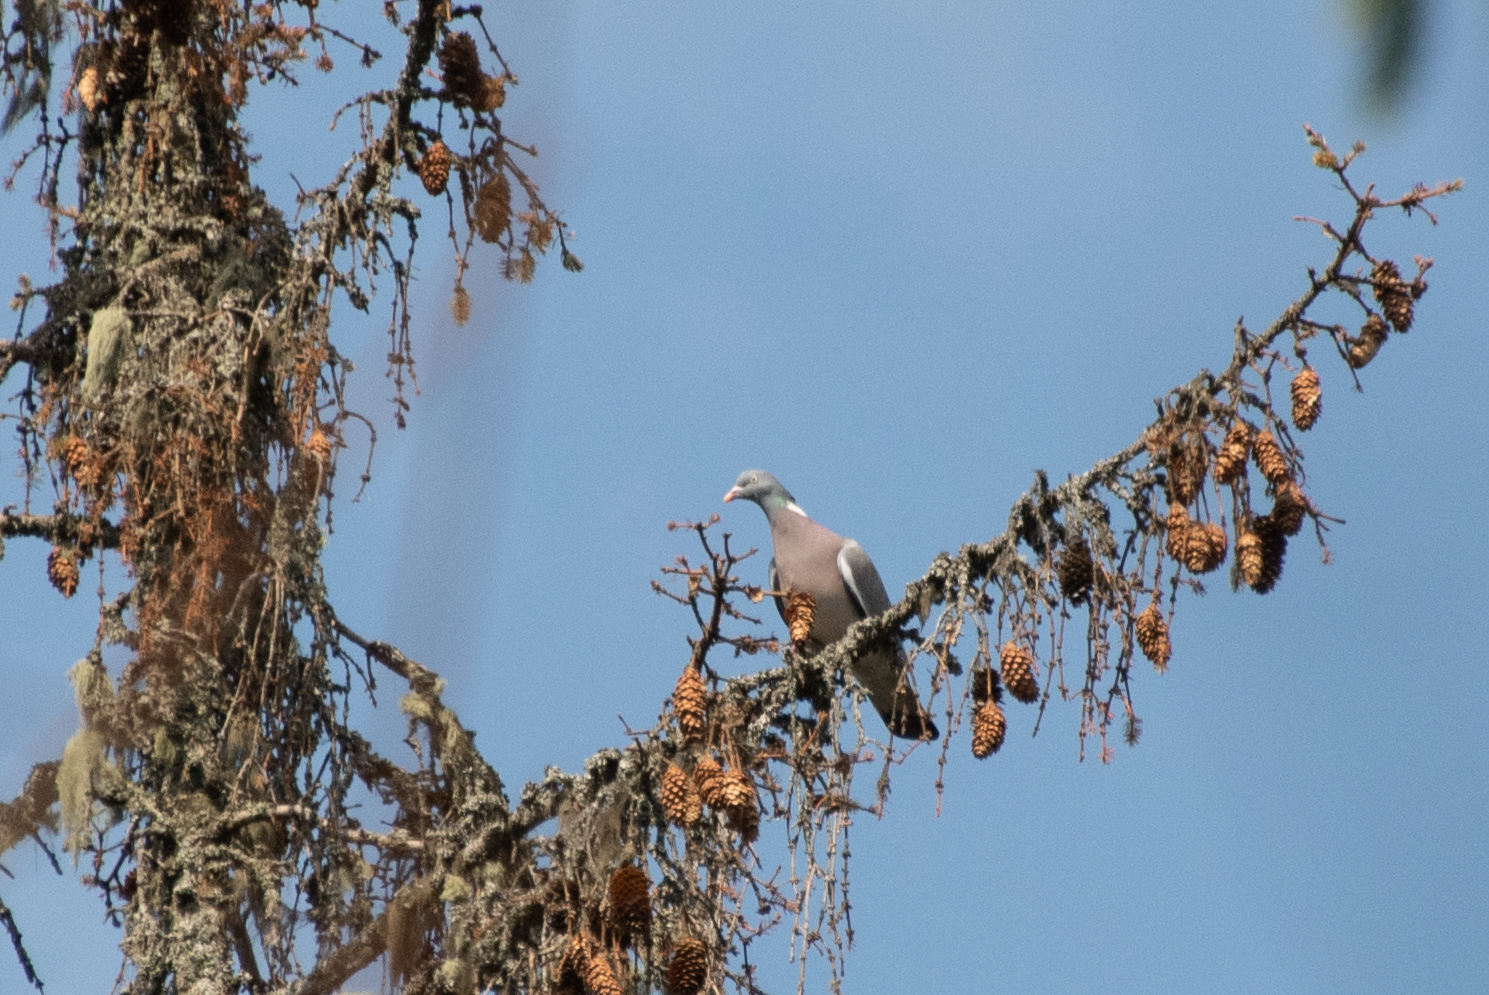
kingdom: Animalia
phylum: Chordata
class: Aves
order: Columbiformes
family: Columbidae
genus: Columba
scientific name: Columba palumbus
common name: Common wood pigeon
